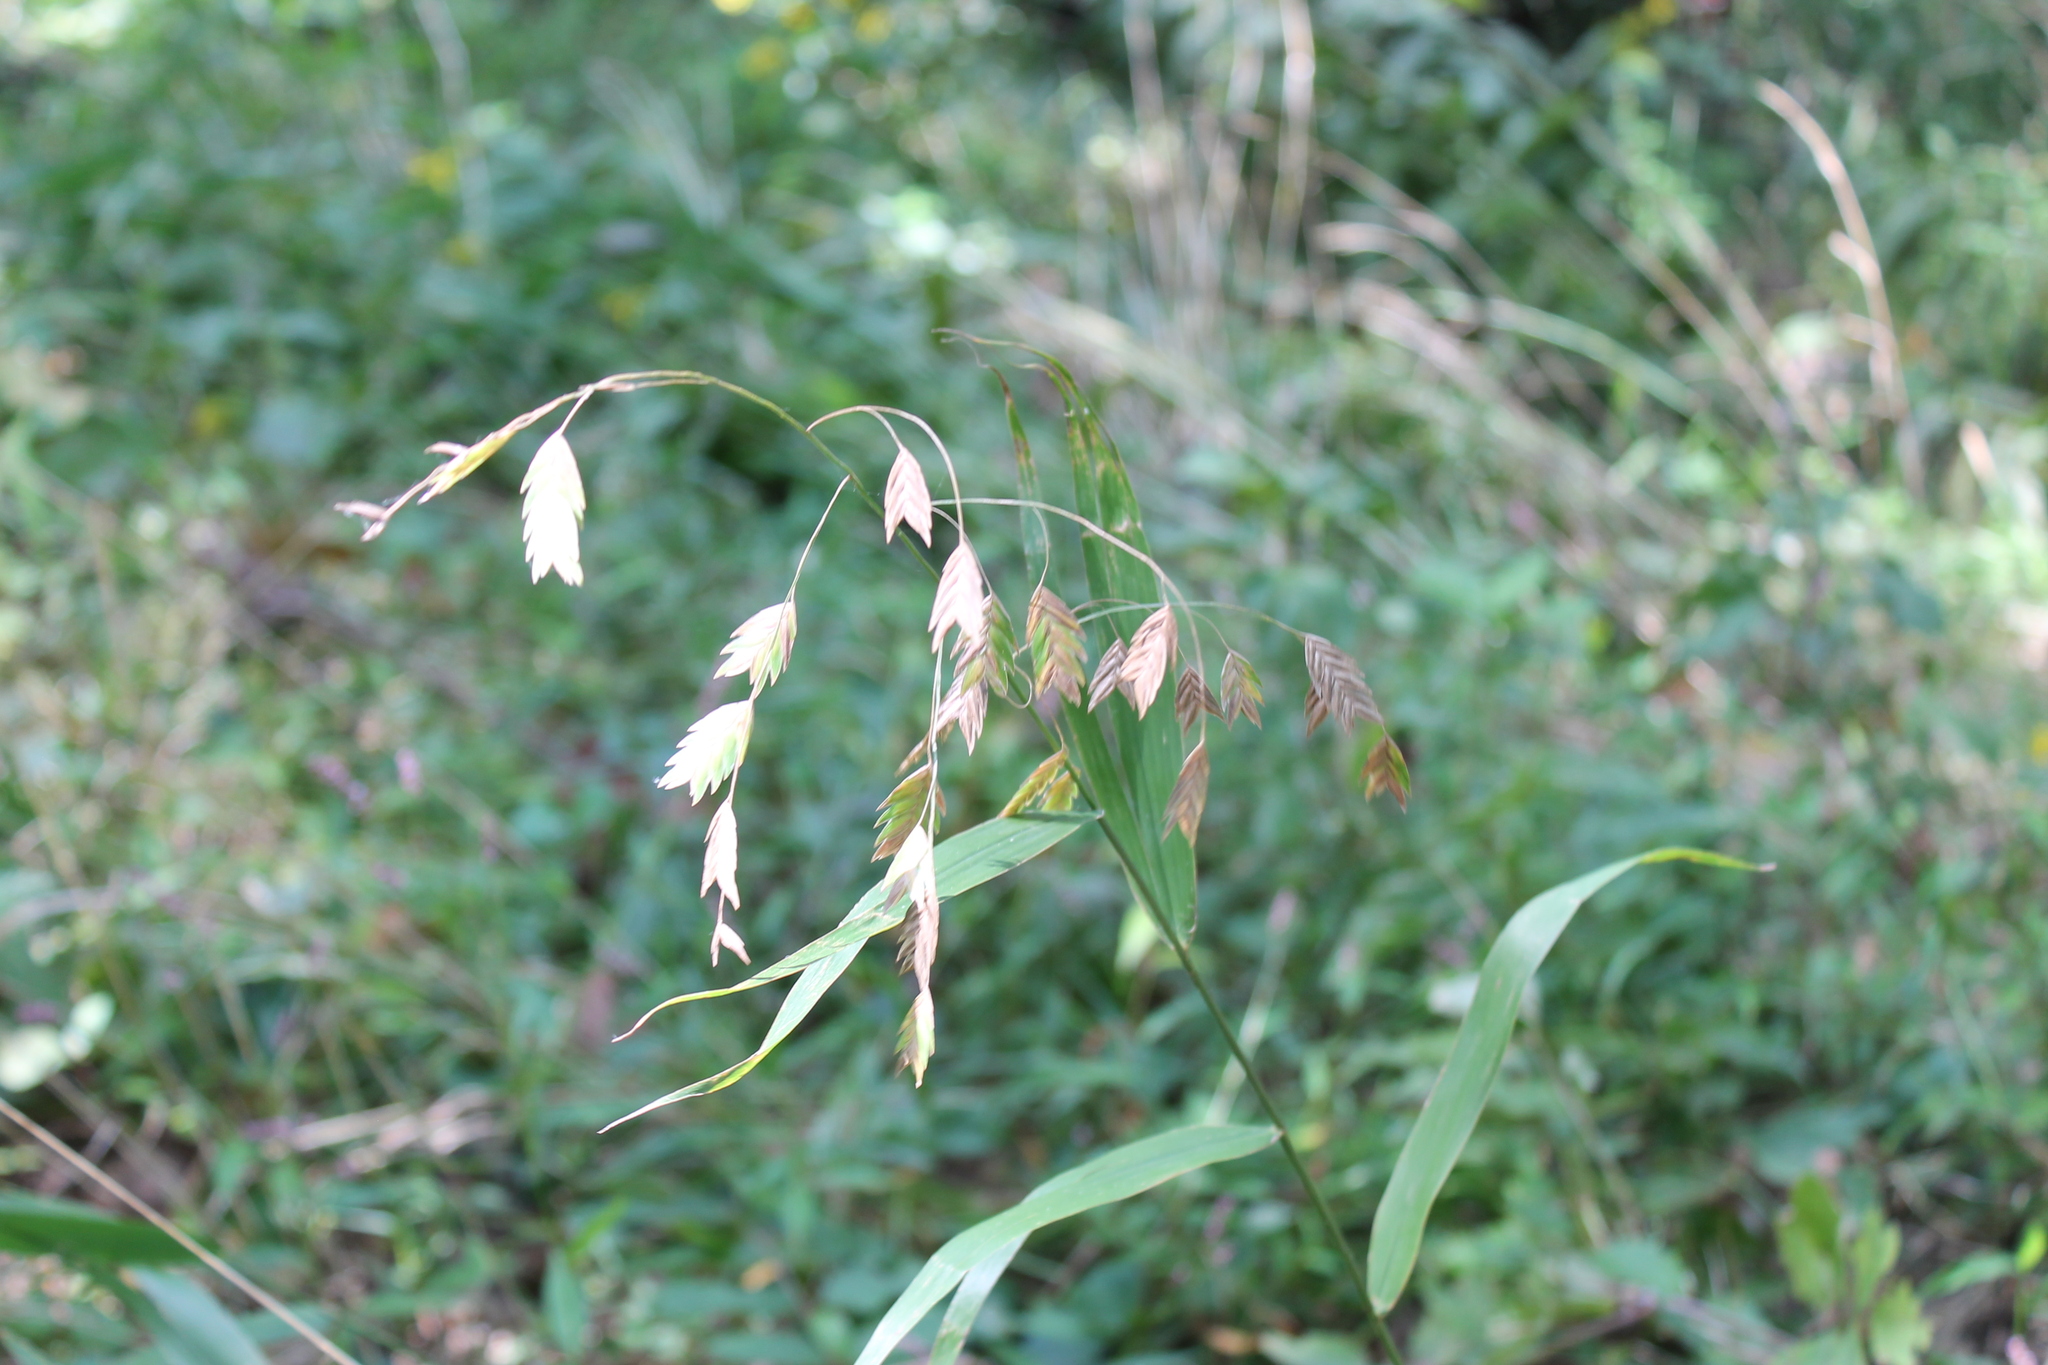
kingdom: Plantae
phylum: Tracheophyta
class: Liliopsida
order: Poales
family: Poaceae
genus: Chasmanthium
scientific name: Chasmanthium latifolium
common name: Broad-leaved chasmanthium
